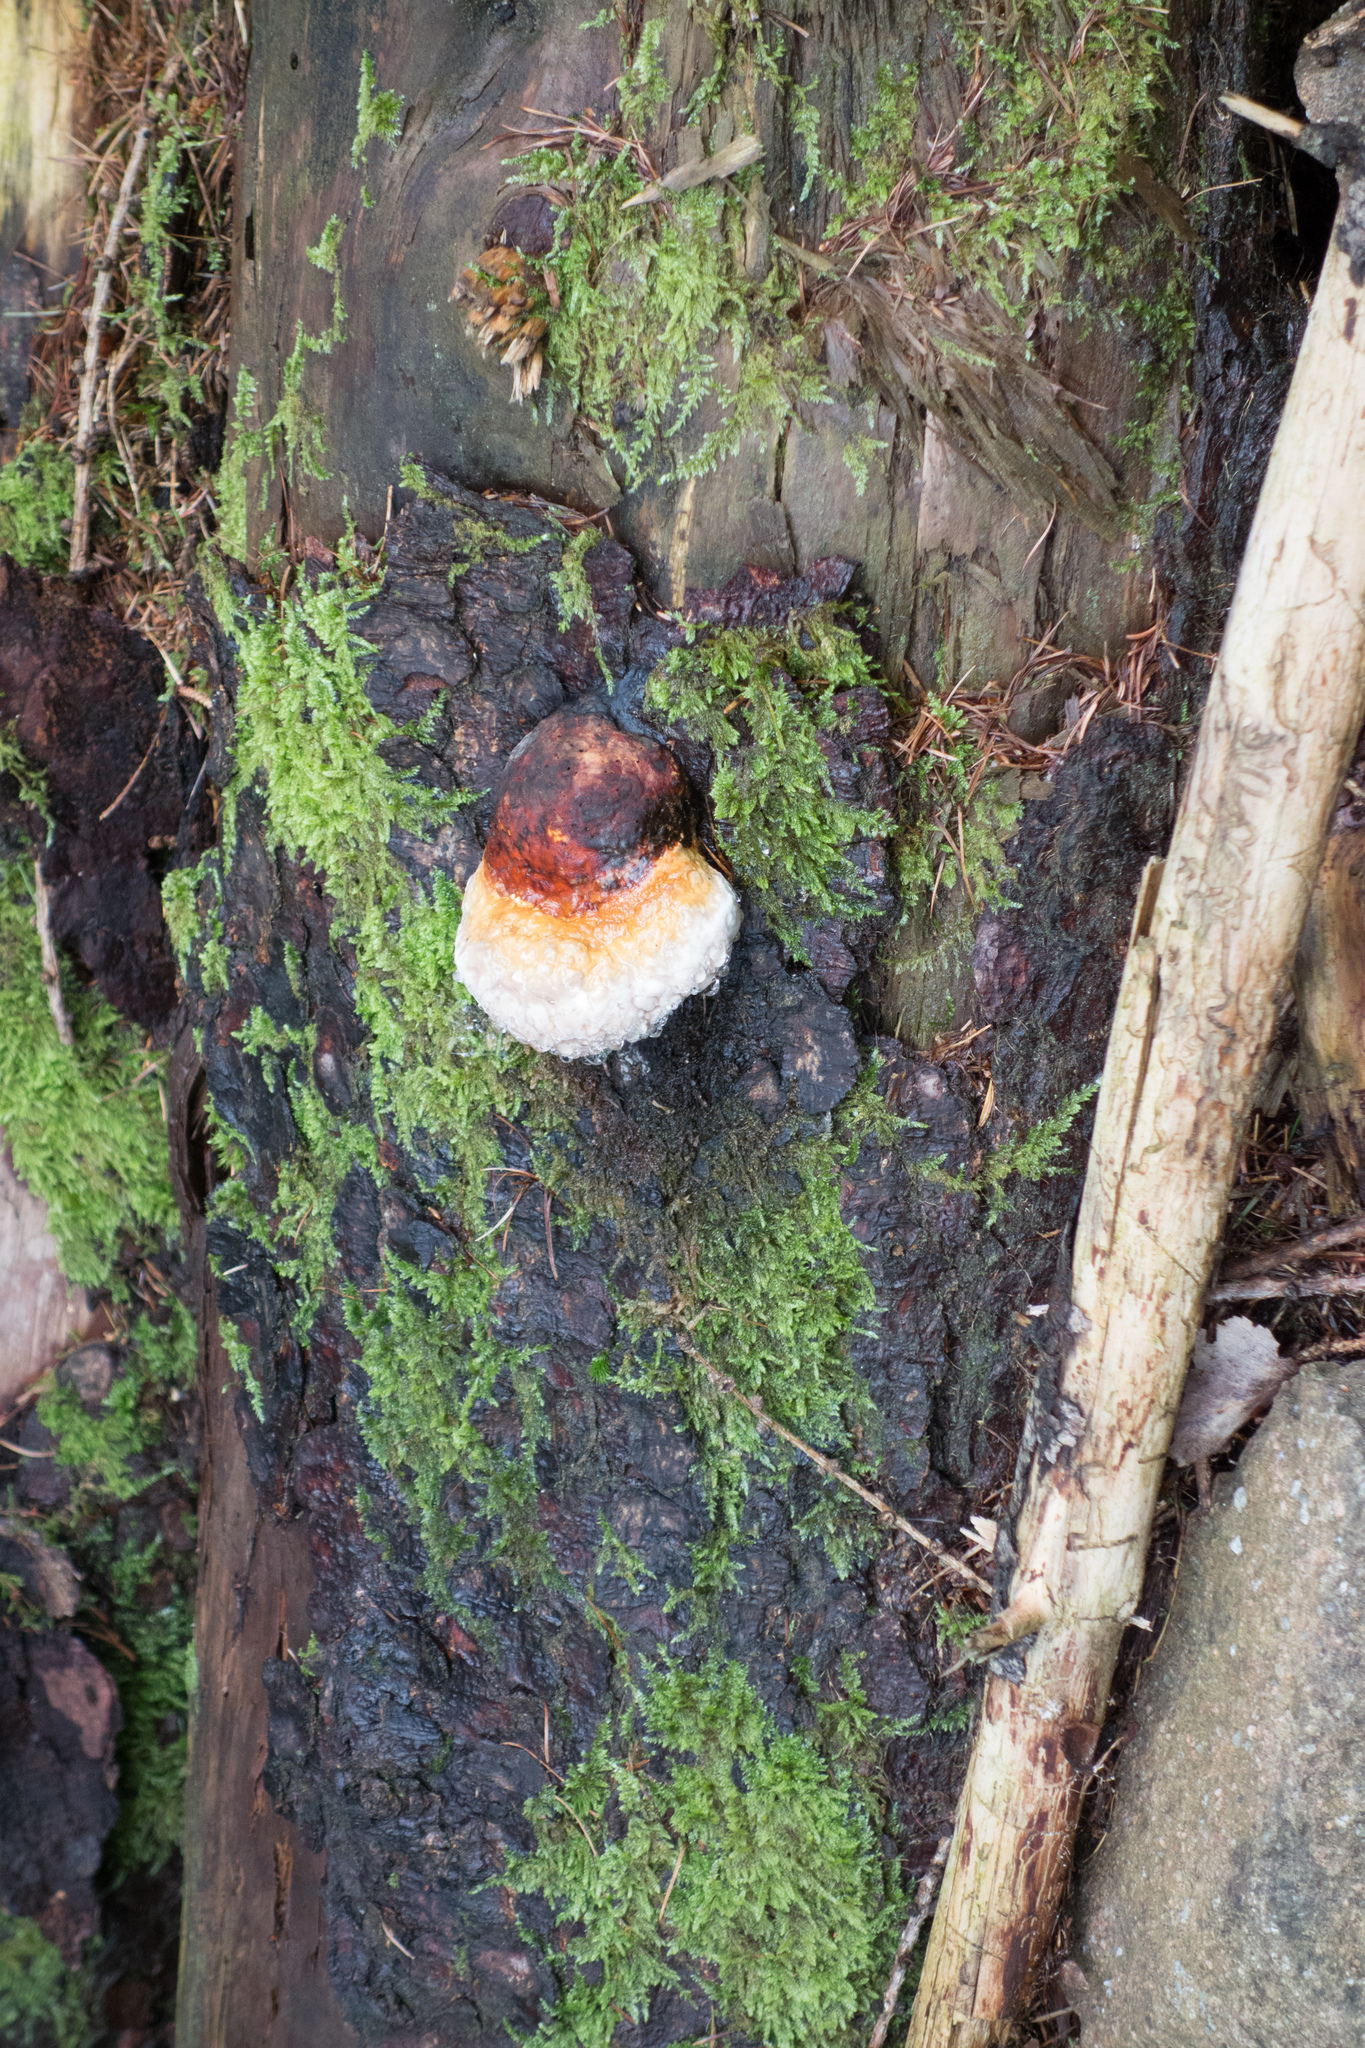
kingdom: Fungi
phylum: Basidiomycota
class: Agaricomycetes
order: Polyporales
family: Fomitopsidaceae
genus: Fomitopsis
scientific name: Fomitopsis pinicola
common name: Red-belted bracket
